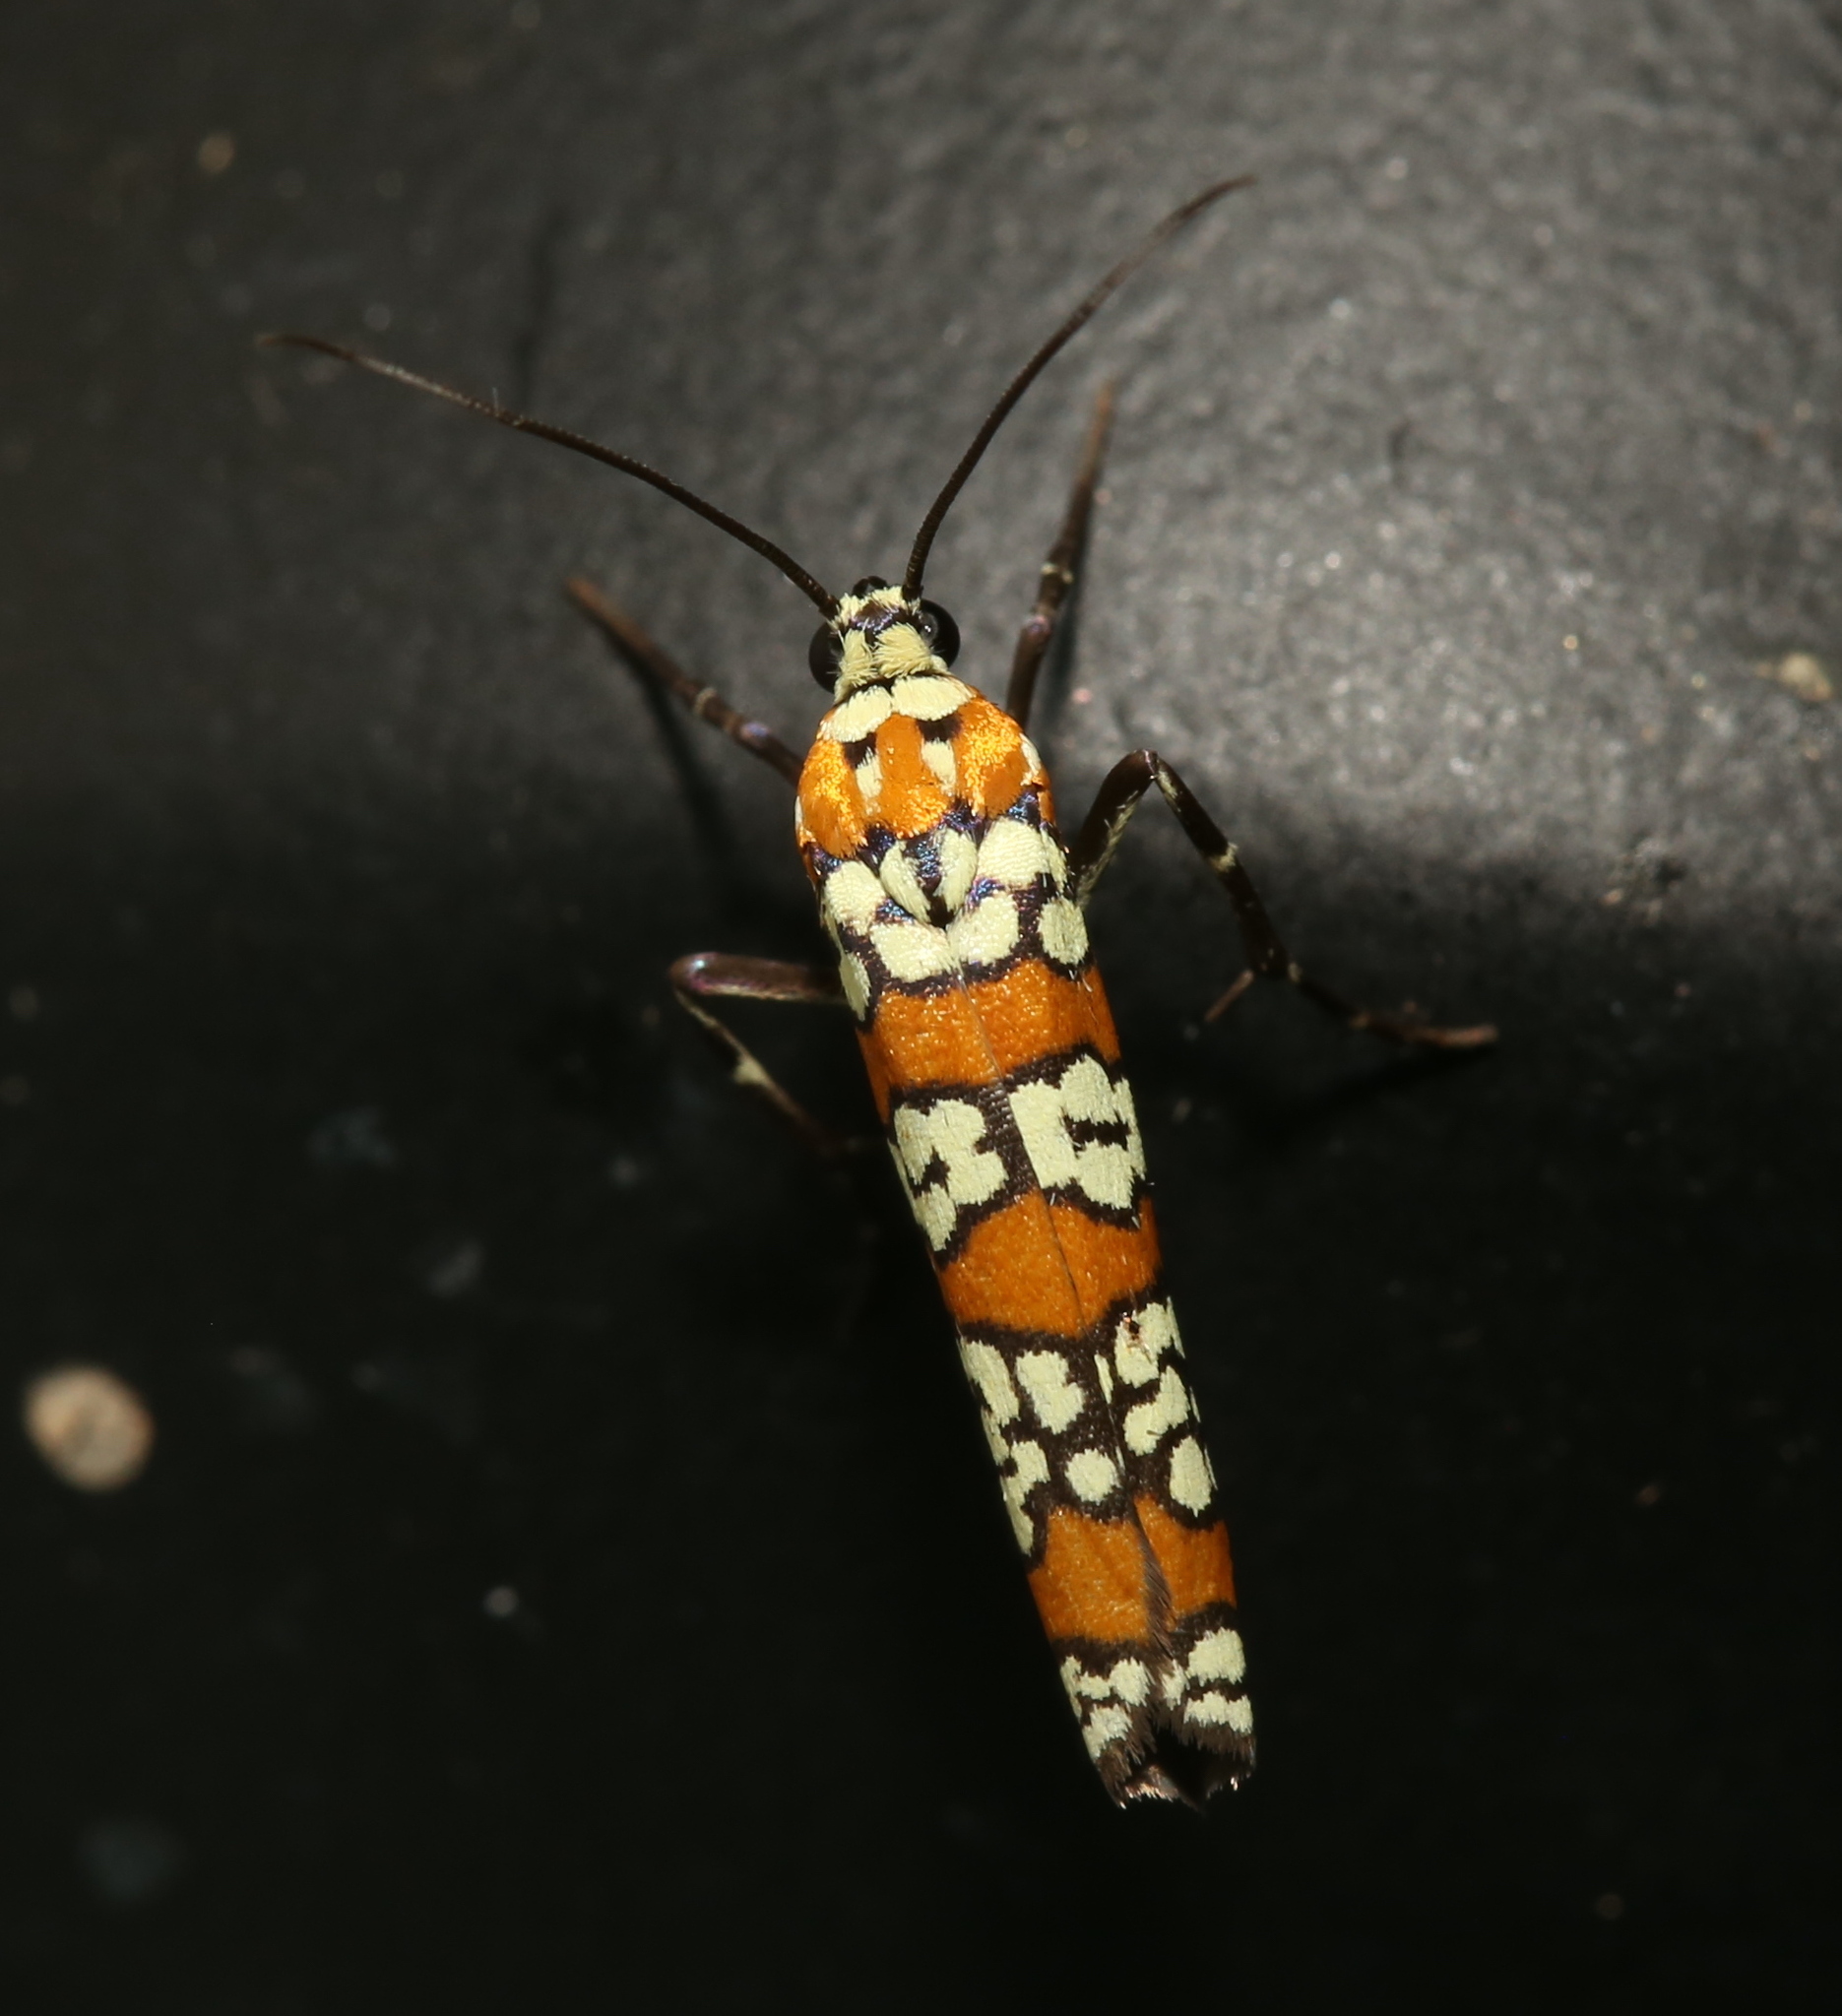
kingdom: Animalia
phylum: Arthropoda
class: Insecta
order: Lepidoptera
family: Attevidae
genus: Atteva
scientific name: Atteva punctella
